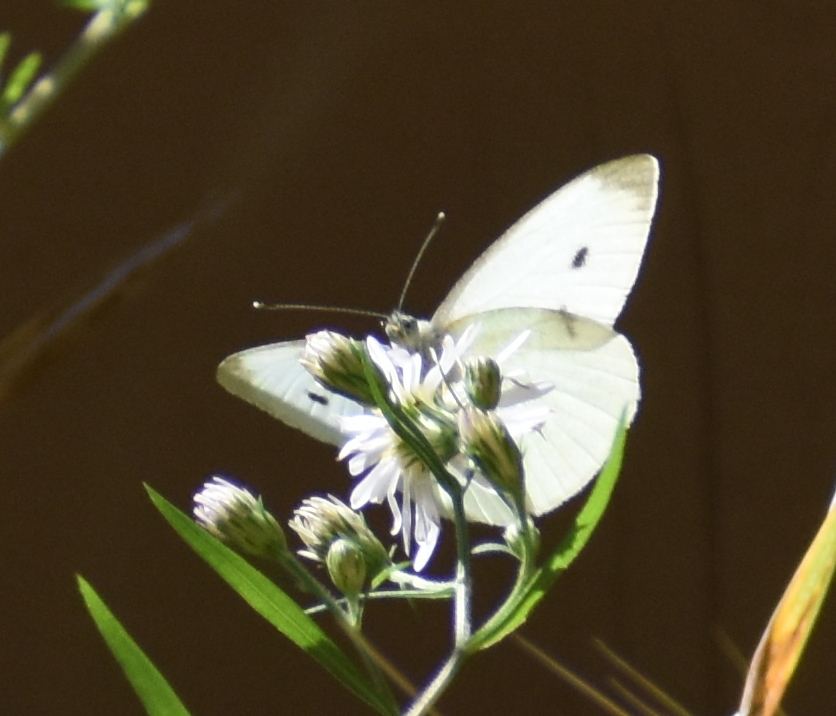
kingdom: Animalia
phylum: Arthropoda
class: Insecta
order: Lepidoptera
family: Pieridae
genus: Pieris
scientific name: Pieris rapae
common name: Small white
